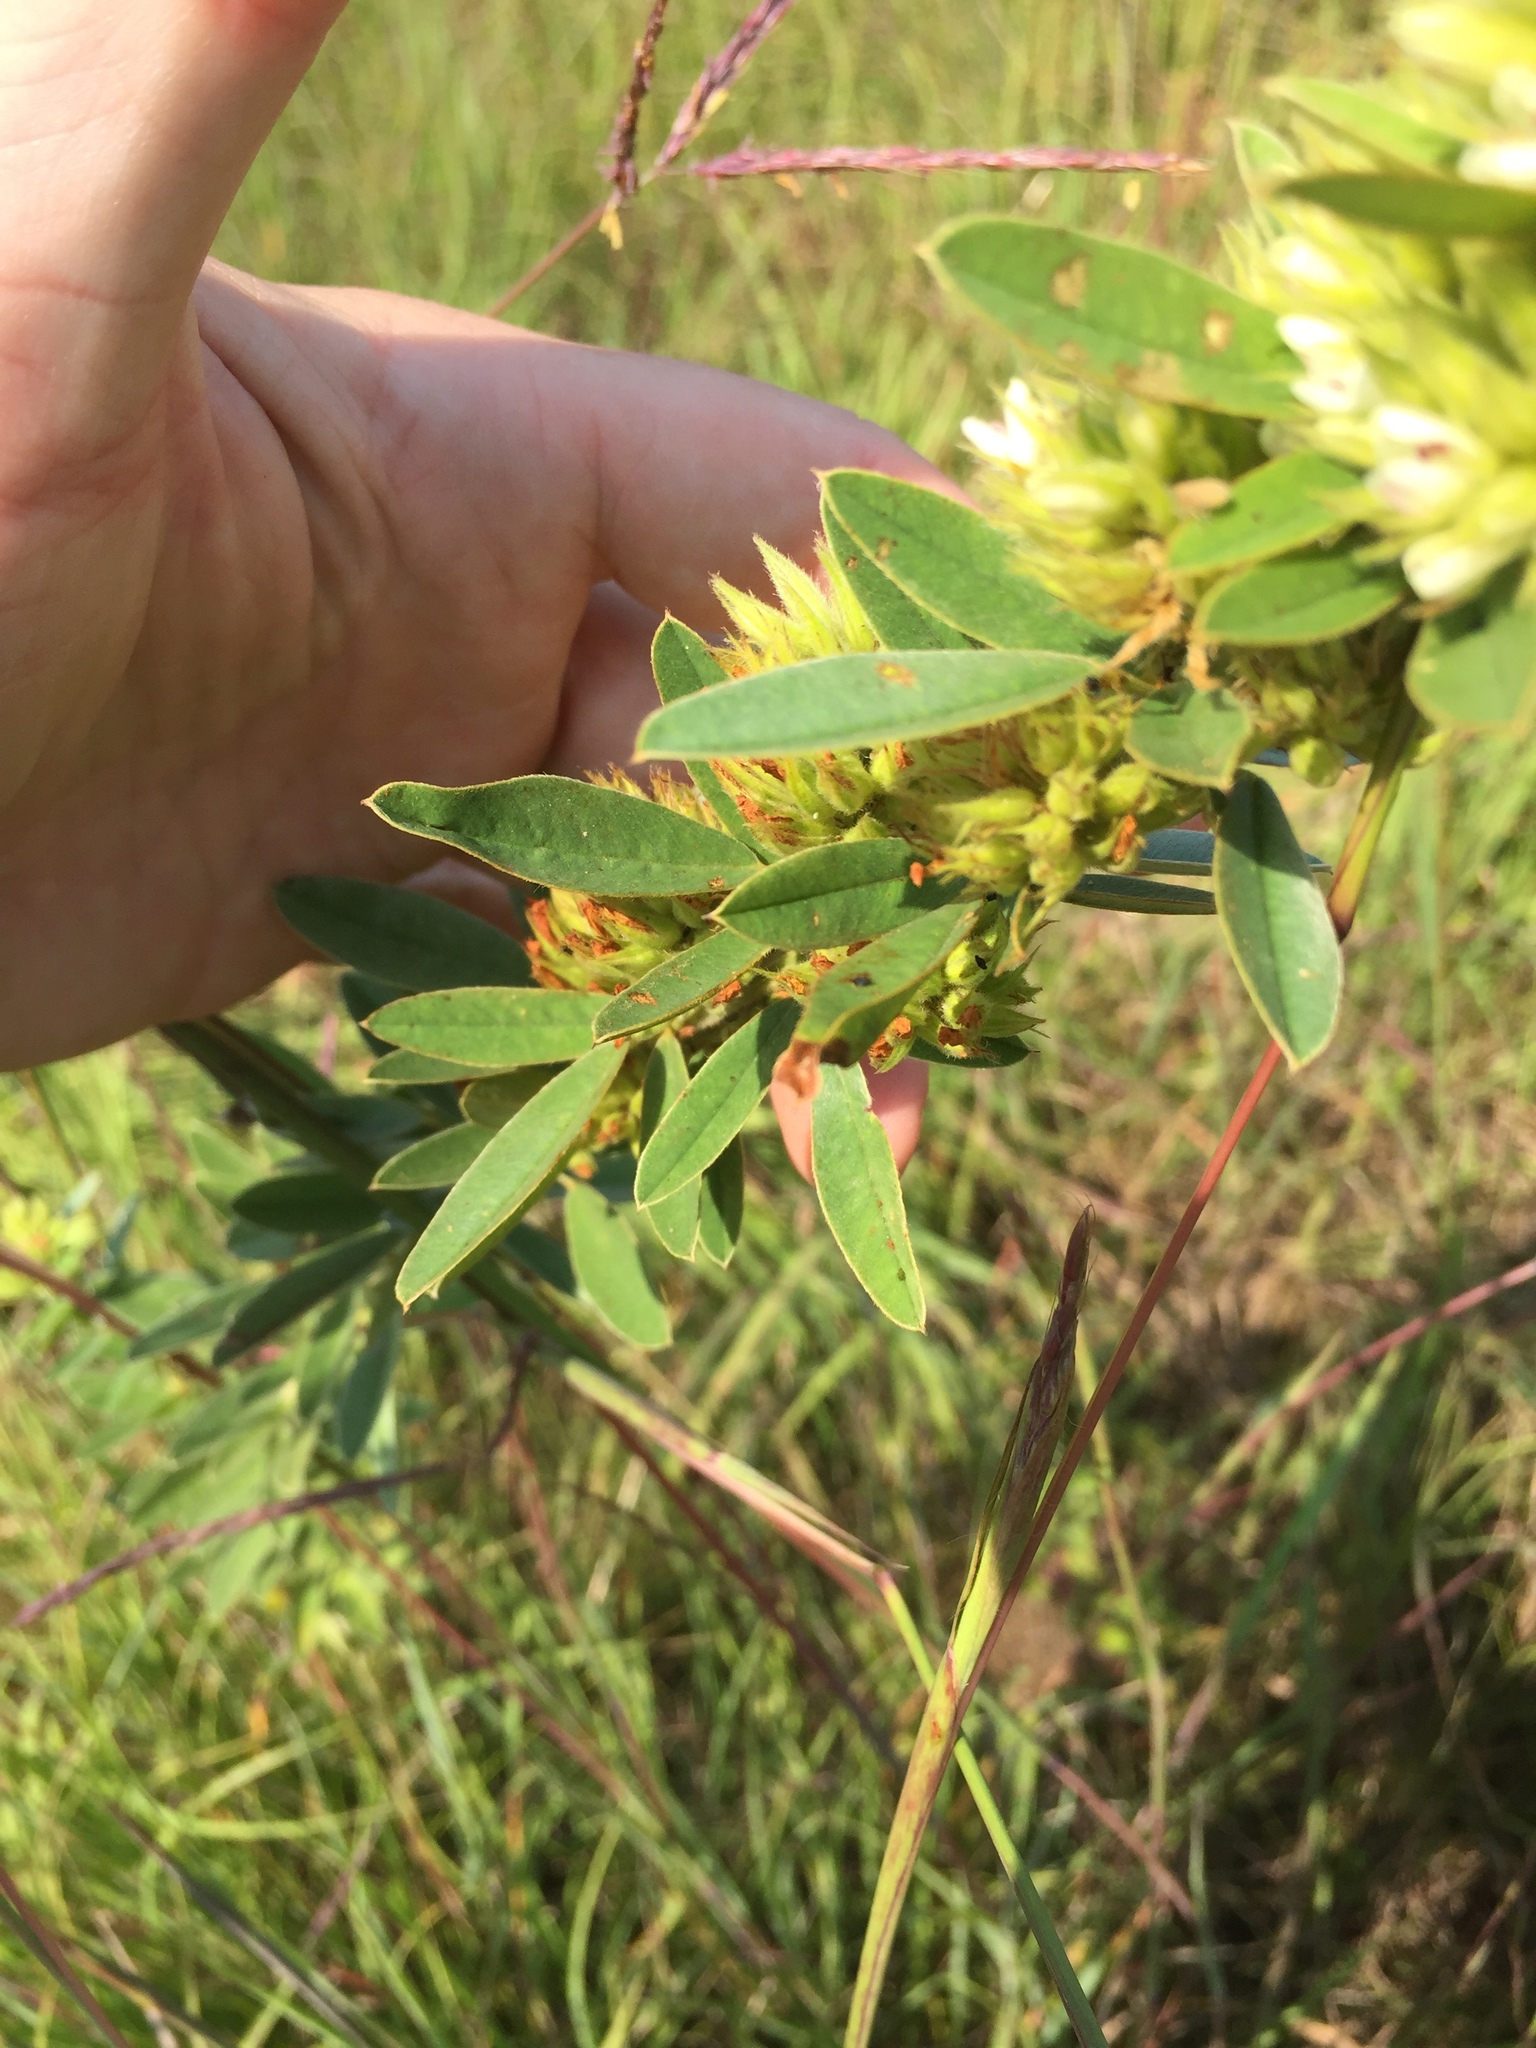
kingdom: Plantae
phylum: Tracheophyta
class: Magnoliopsida
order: Fabales
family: Fabaceae
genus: Lespedeza
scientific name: Lespedeza capitata
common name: Dusty clover
